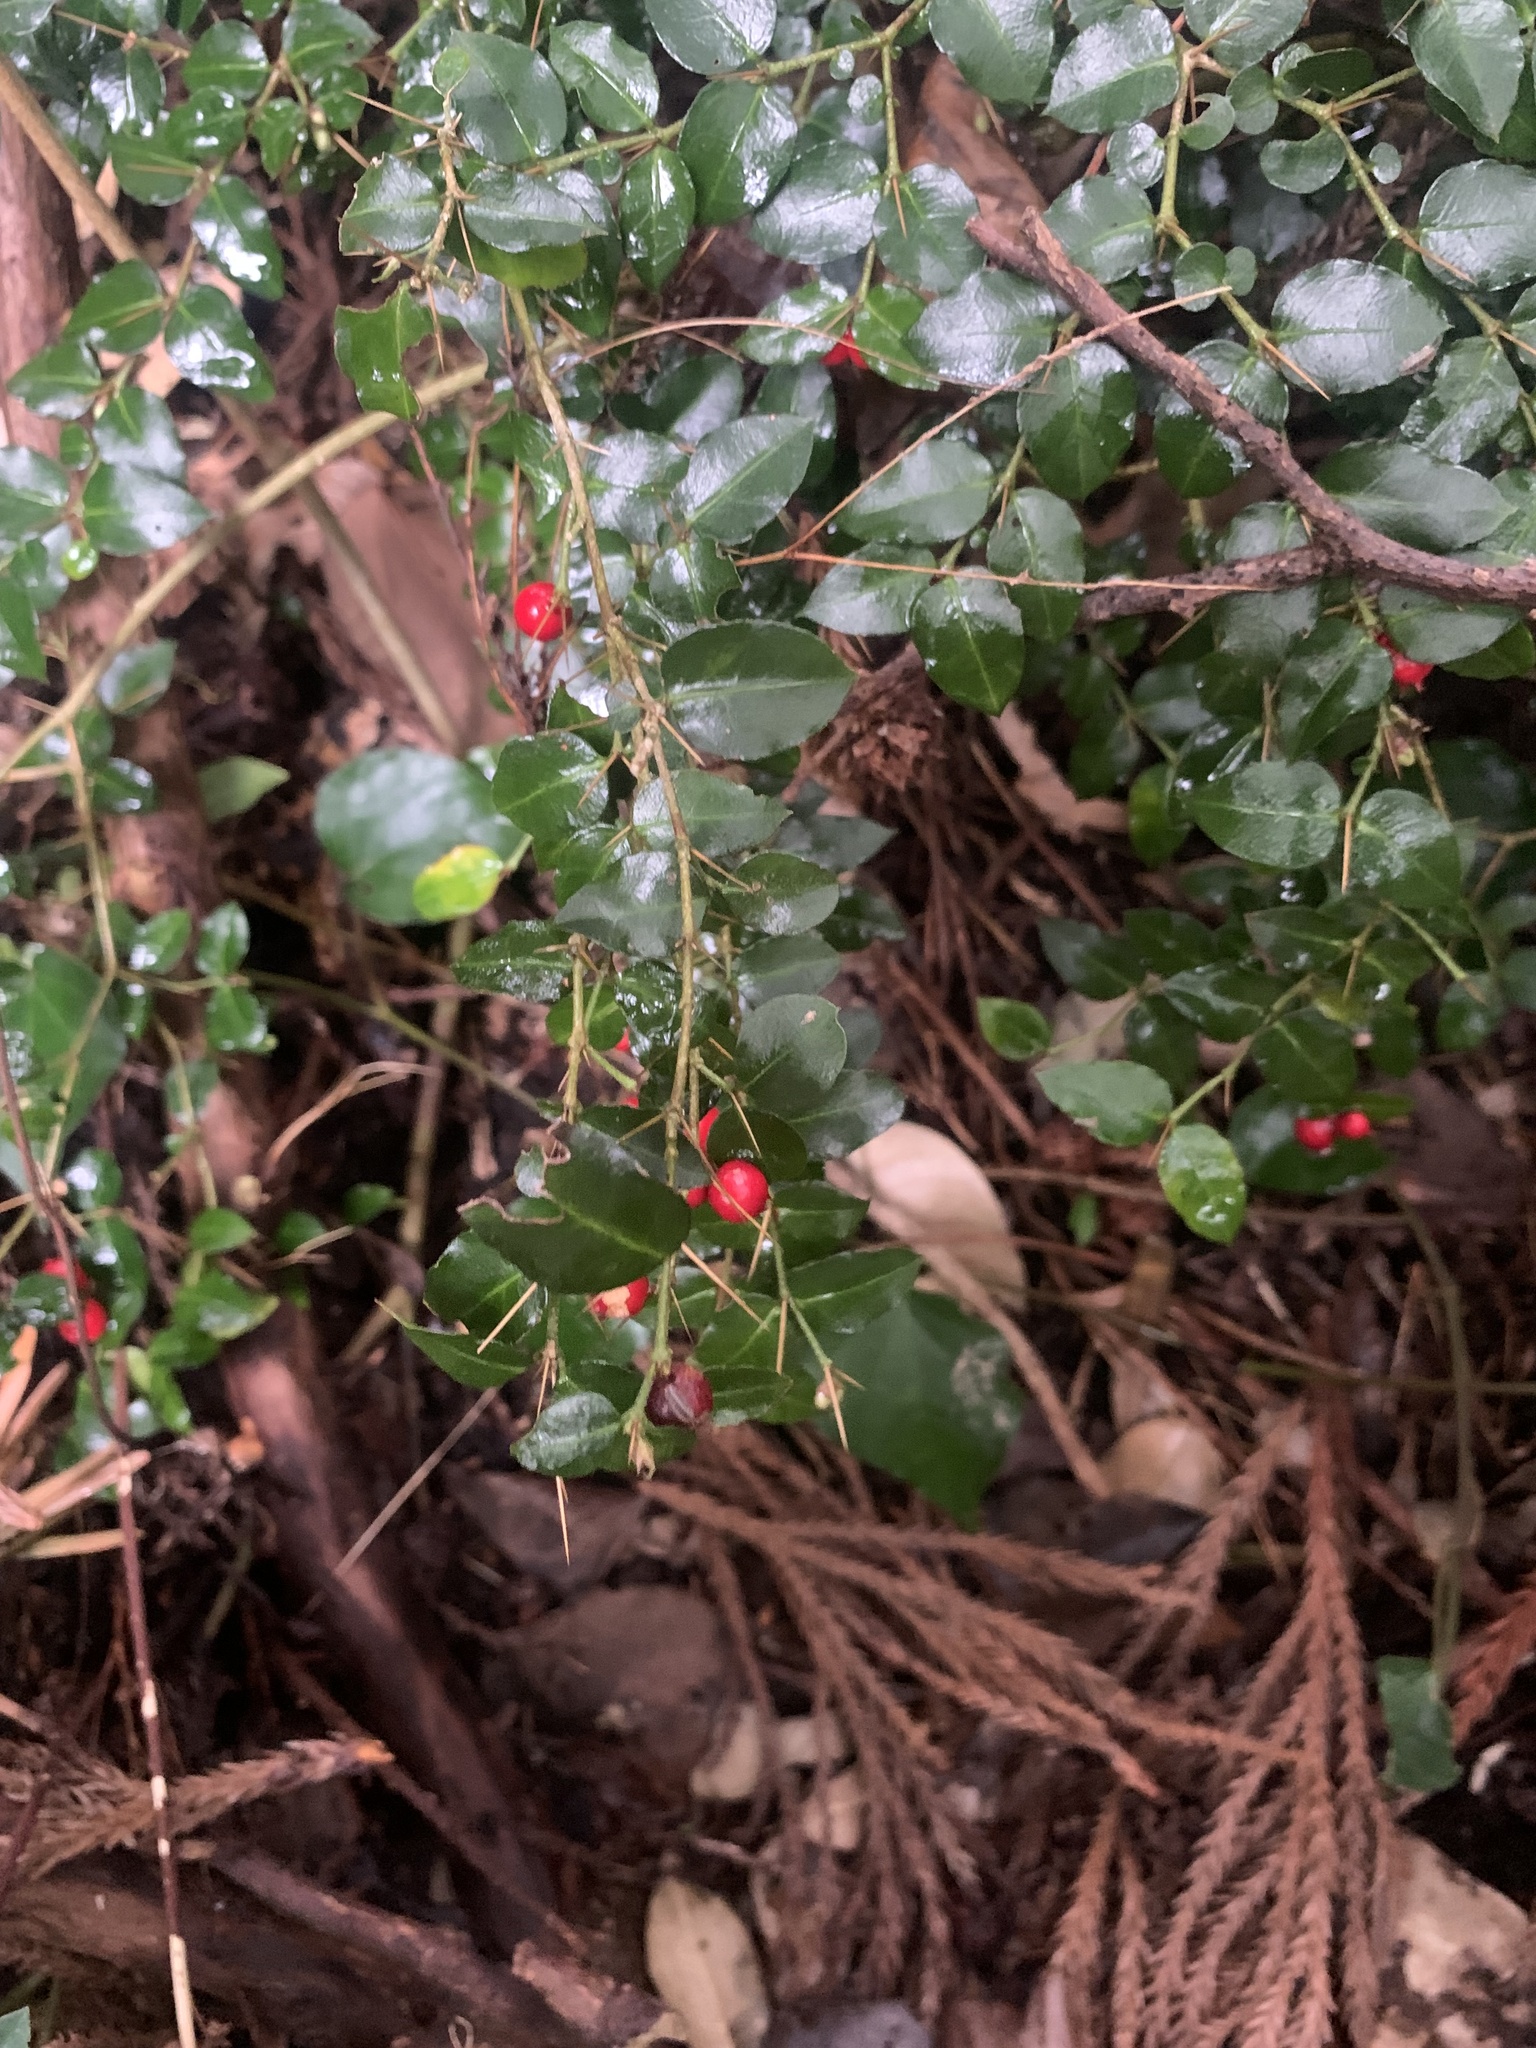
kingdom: Plantae
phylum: Tracheophyta
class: Magnoliopsida
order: Gentianales
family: Rubiaceae
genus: Damnacanthus
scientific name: Damnacanthus indicus
